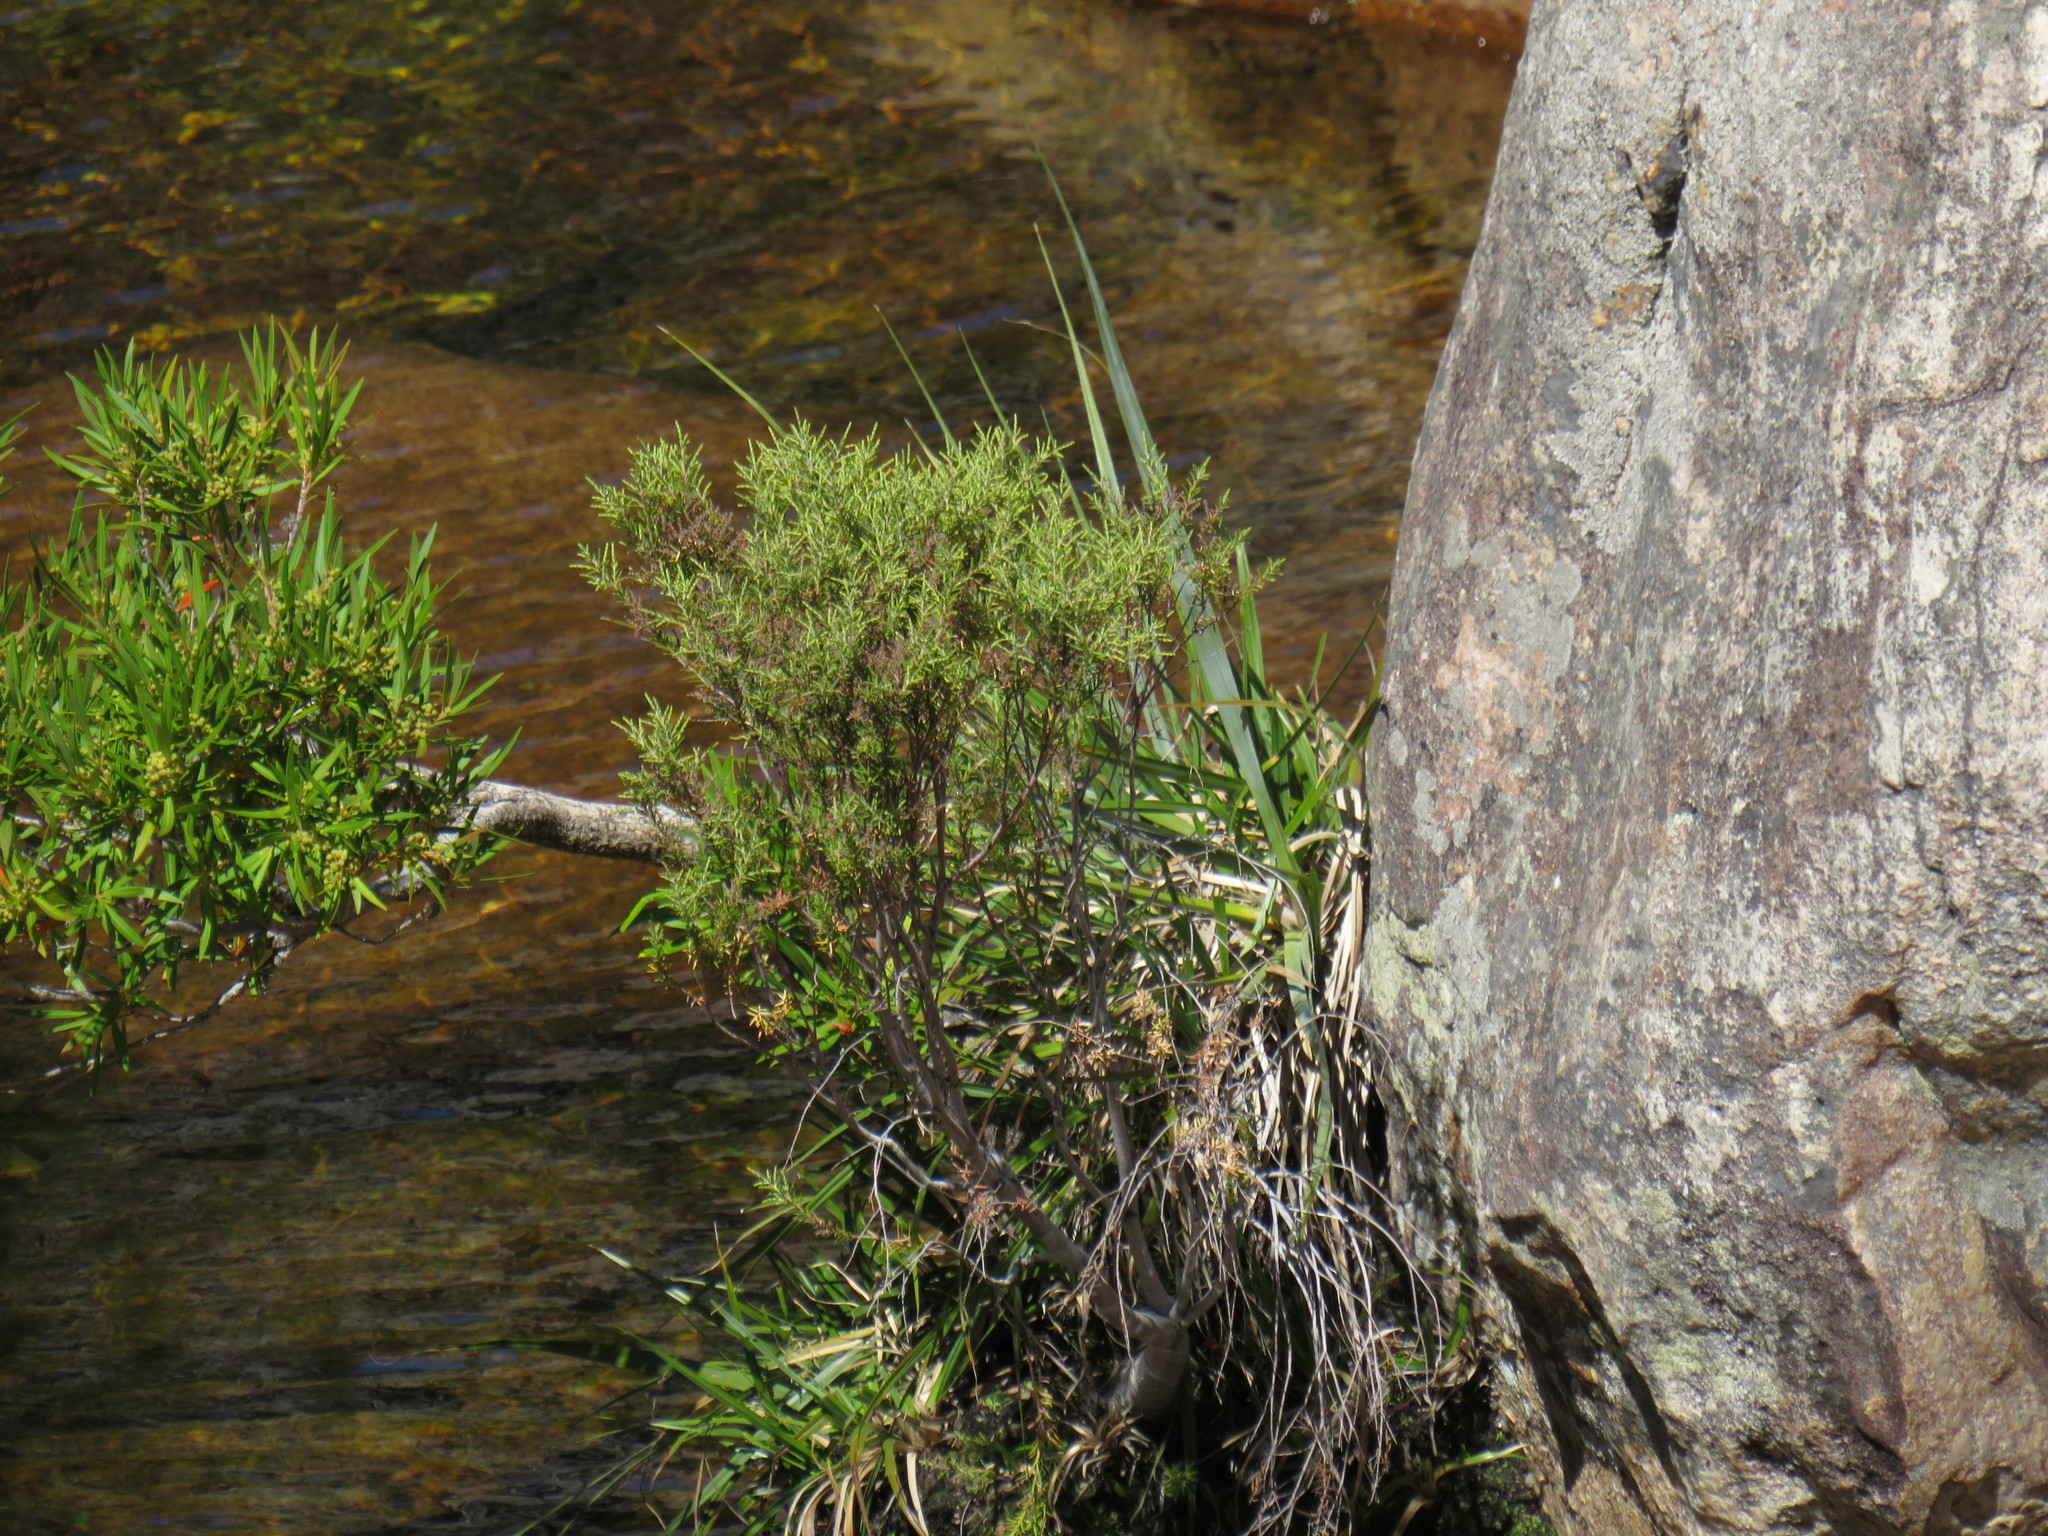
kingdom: Plantae
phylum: Tracheophyta
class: Liliopsida
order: Poales
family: Thurniaceae
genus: Prionium
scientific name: Prionium serratum
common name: Palmiet
